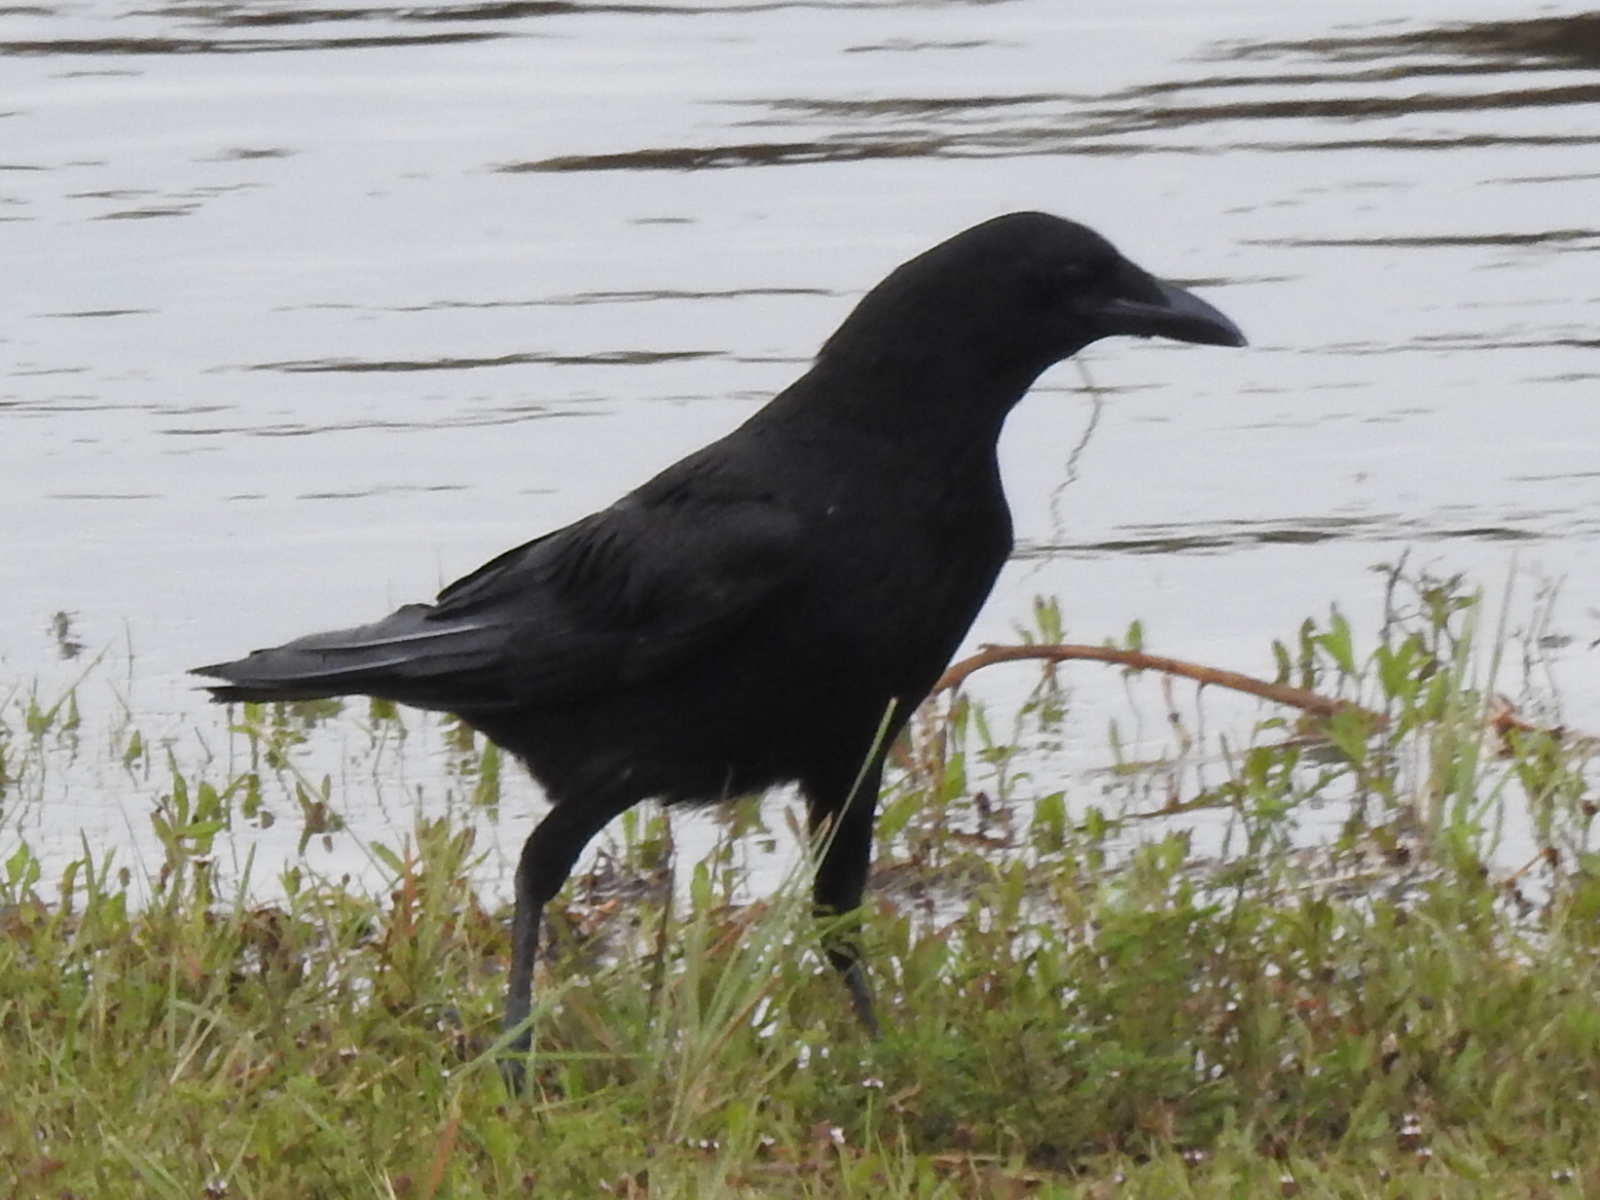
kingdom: Animalia
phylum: Chordata
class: Aves
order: Passeriformes
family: Corvidae
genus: Corvus
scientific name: Corvus brachyrhynchos
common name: American crow
